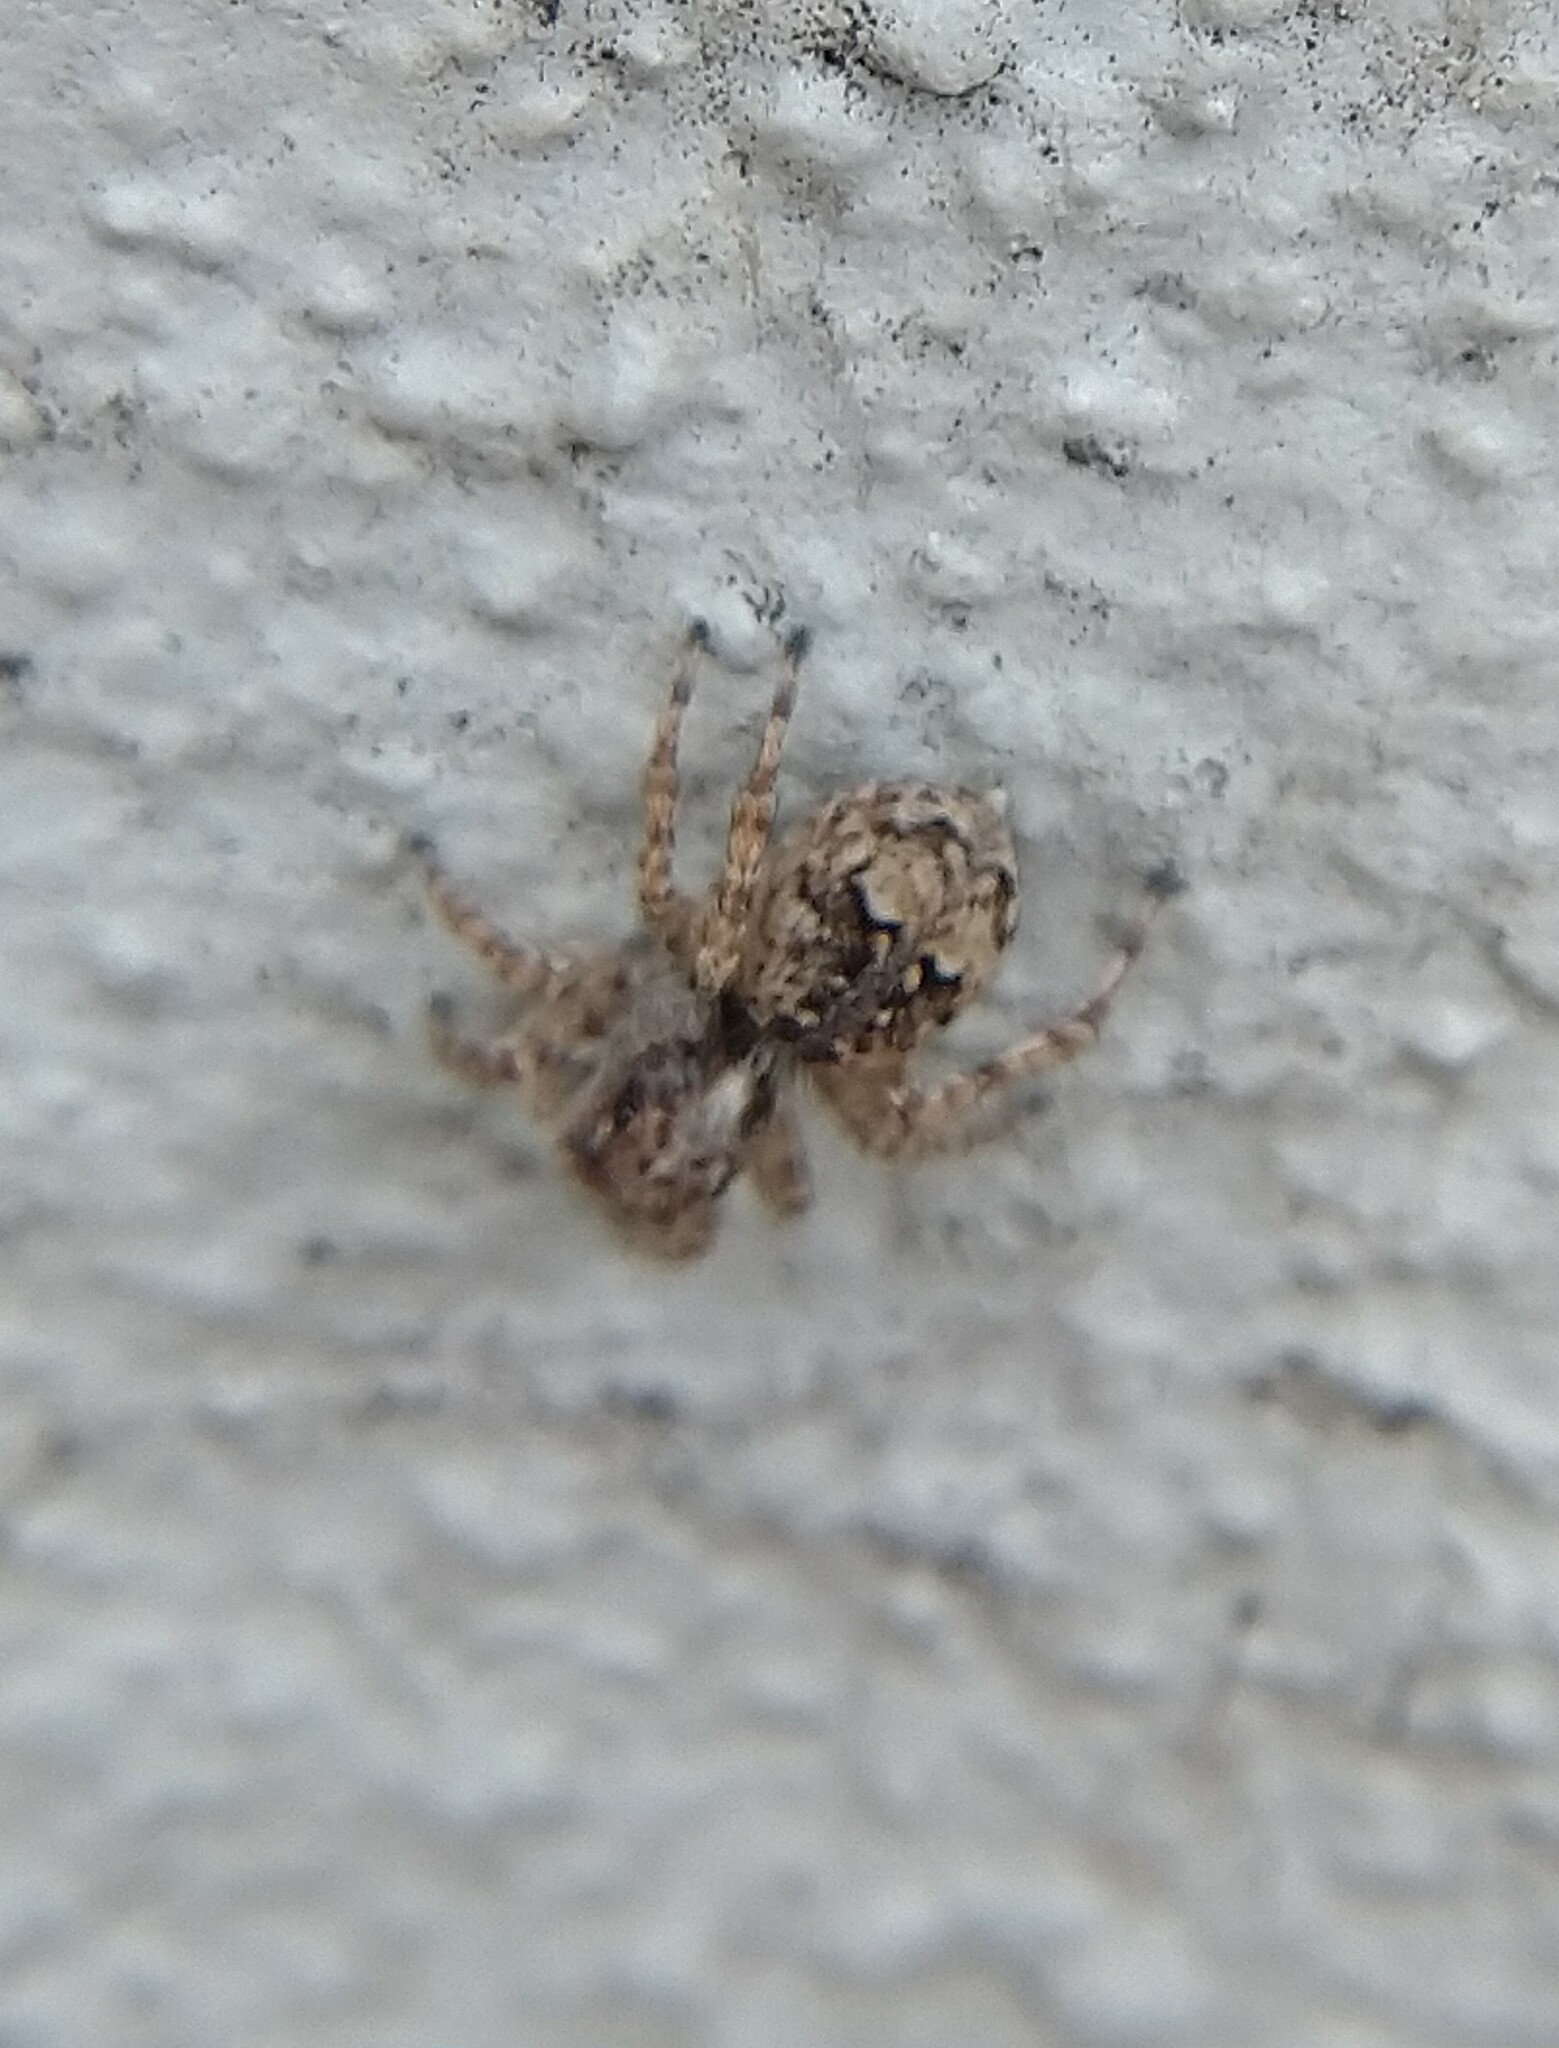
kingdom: Animalia
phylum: Arthropoda
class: Arachnida
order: Araneae
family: Salticidae
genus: Attulus
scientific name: Attulus fasciger
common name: Asiatic wall jumping spider
